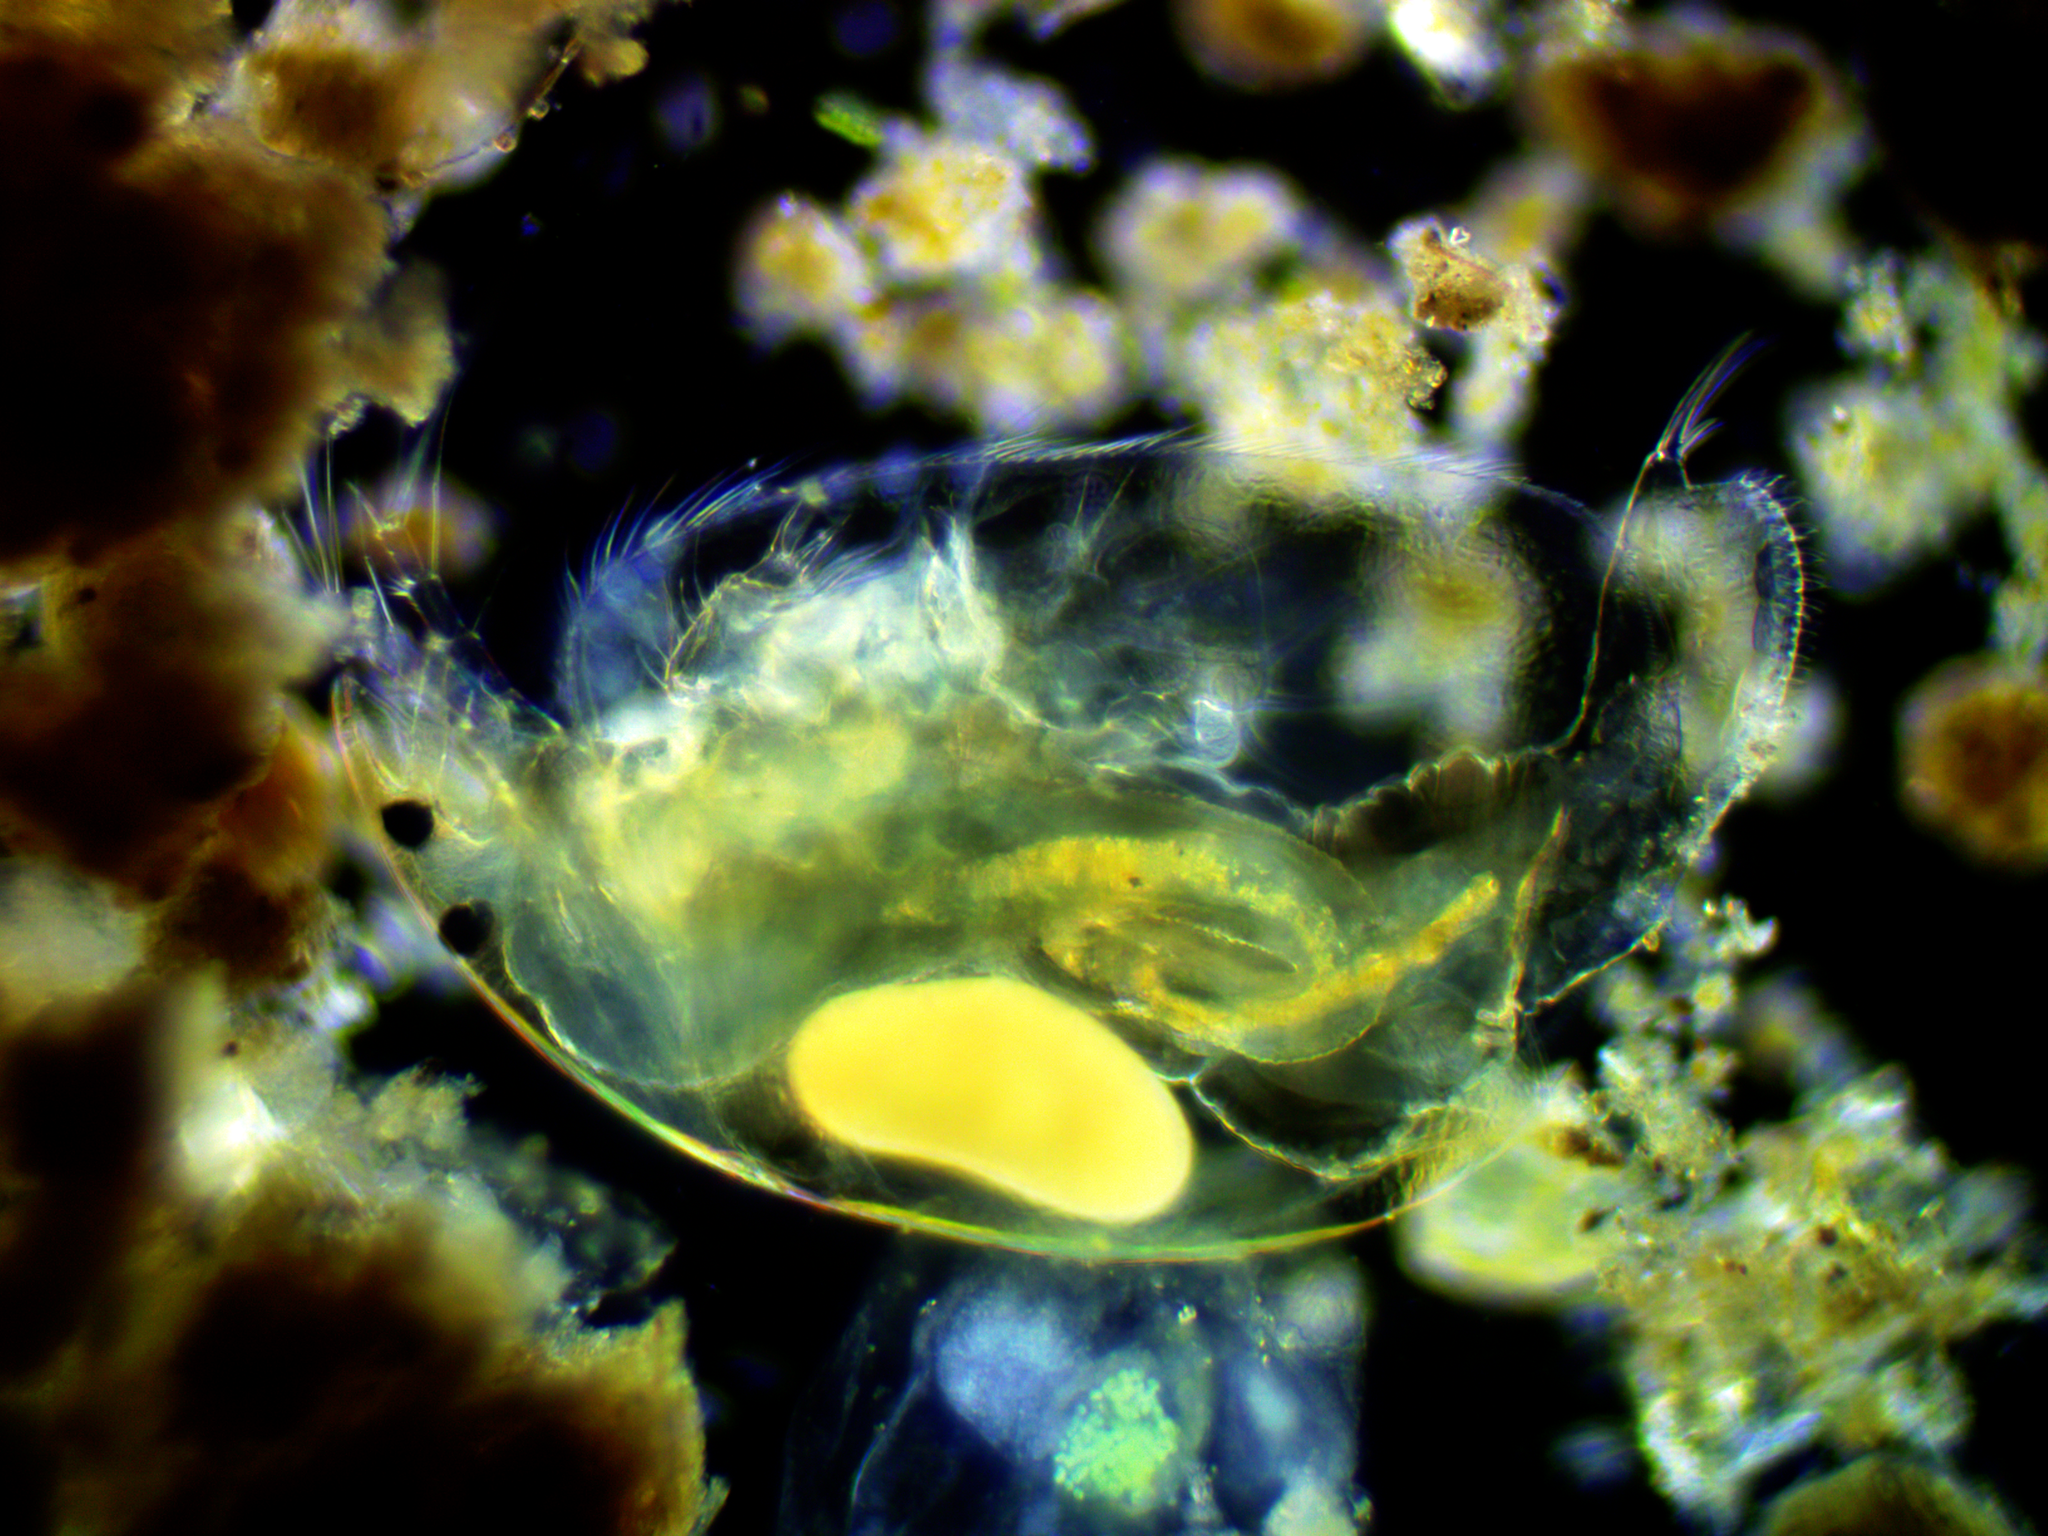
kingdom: Animalia
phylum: Arthropoda
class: Branchiopoda
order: Diplostraca
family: Chydoridae
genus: Alona
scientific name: Alona quadrangularis
